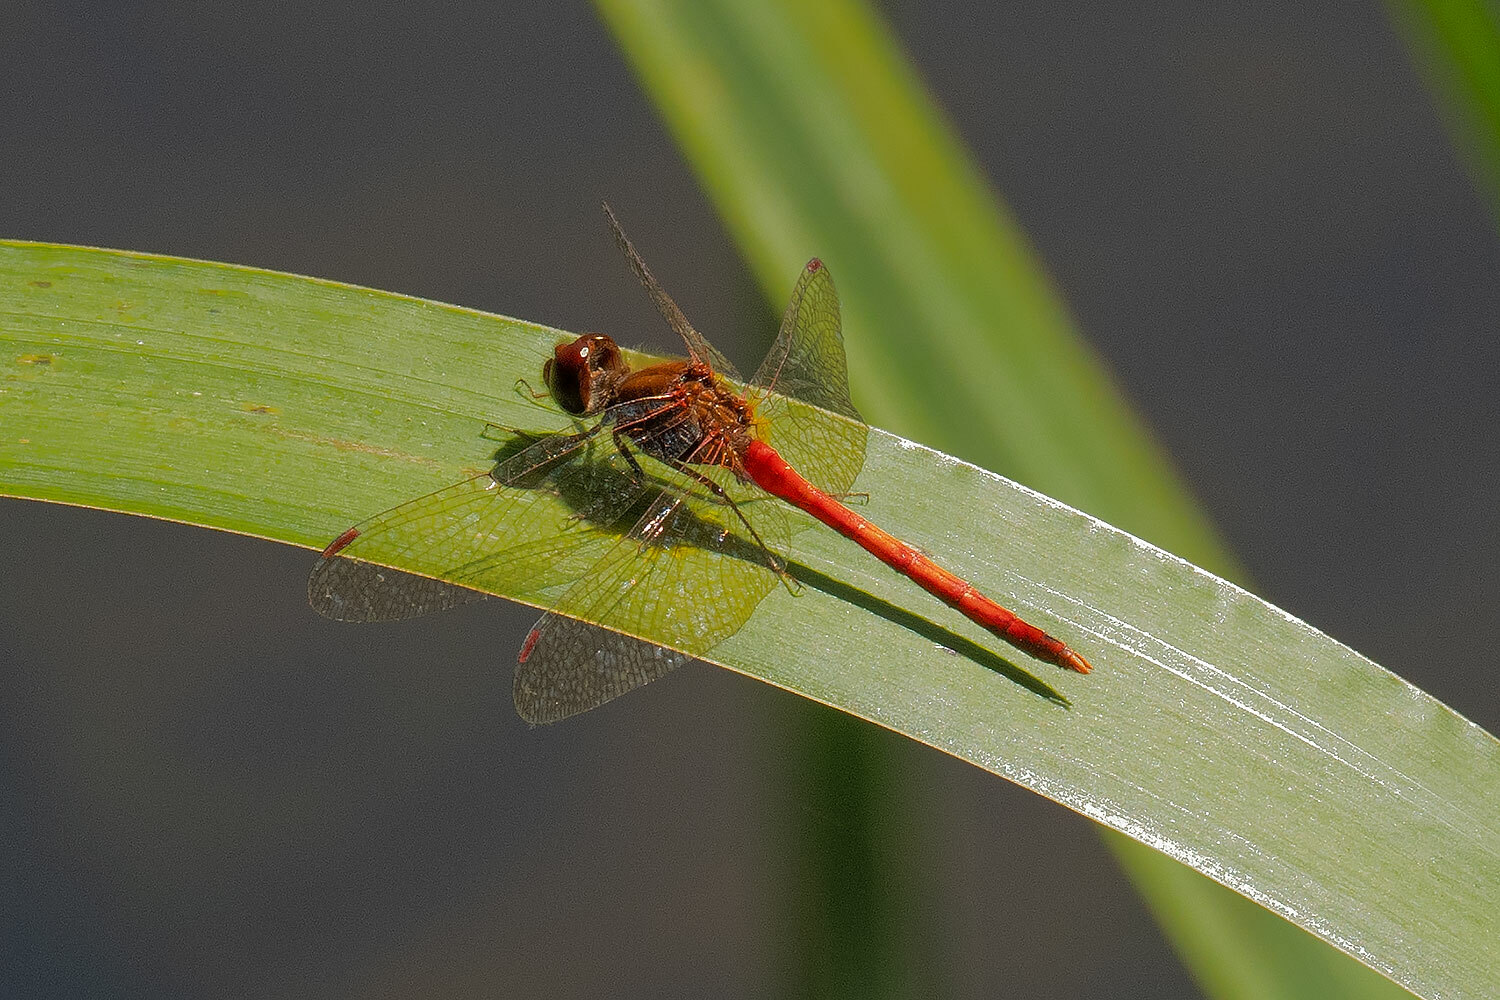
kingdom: Animalia
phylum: Arthropoda
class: Insecta
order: Odonata
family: Libellulidae
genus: Sympetrum
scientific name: Sympetrum vicinum
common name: Autumn meadowhawk
